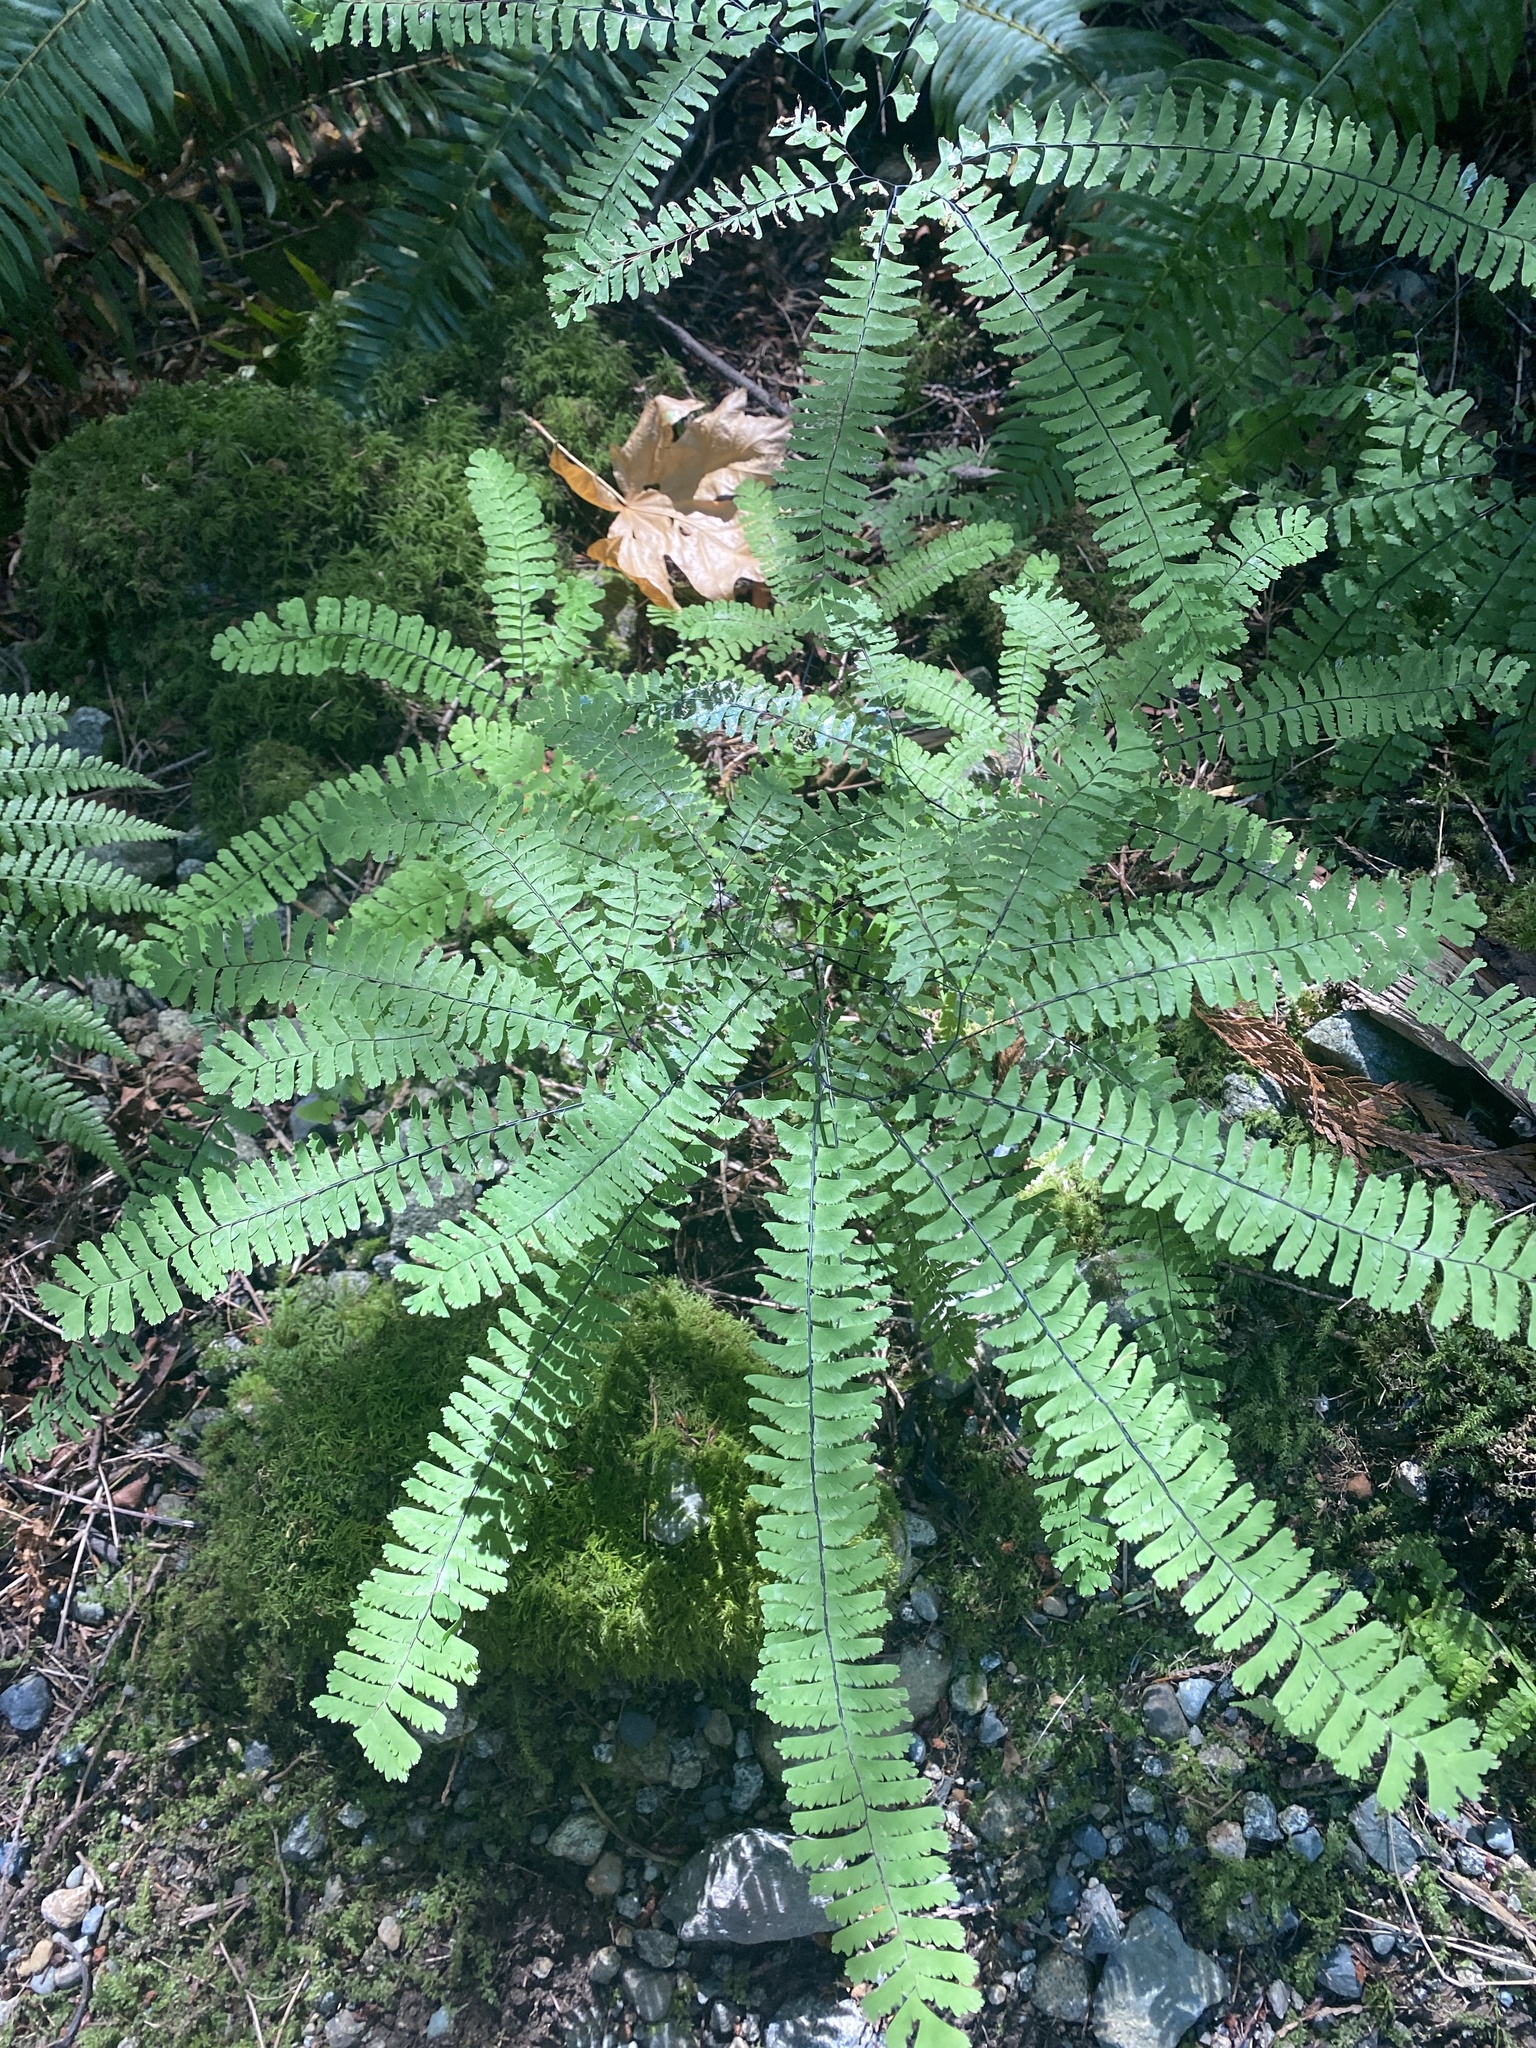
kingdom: Plantae
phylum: Tracheophyta
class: Polypodiopsida
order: Polypodiales
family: Pteridaceae
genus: Adiantum
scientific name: Adiantum aleuticum
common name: Aleutian maidenhair fern
